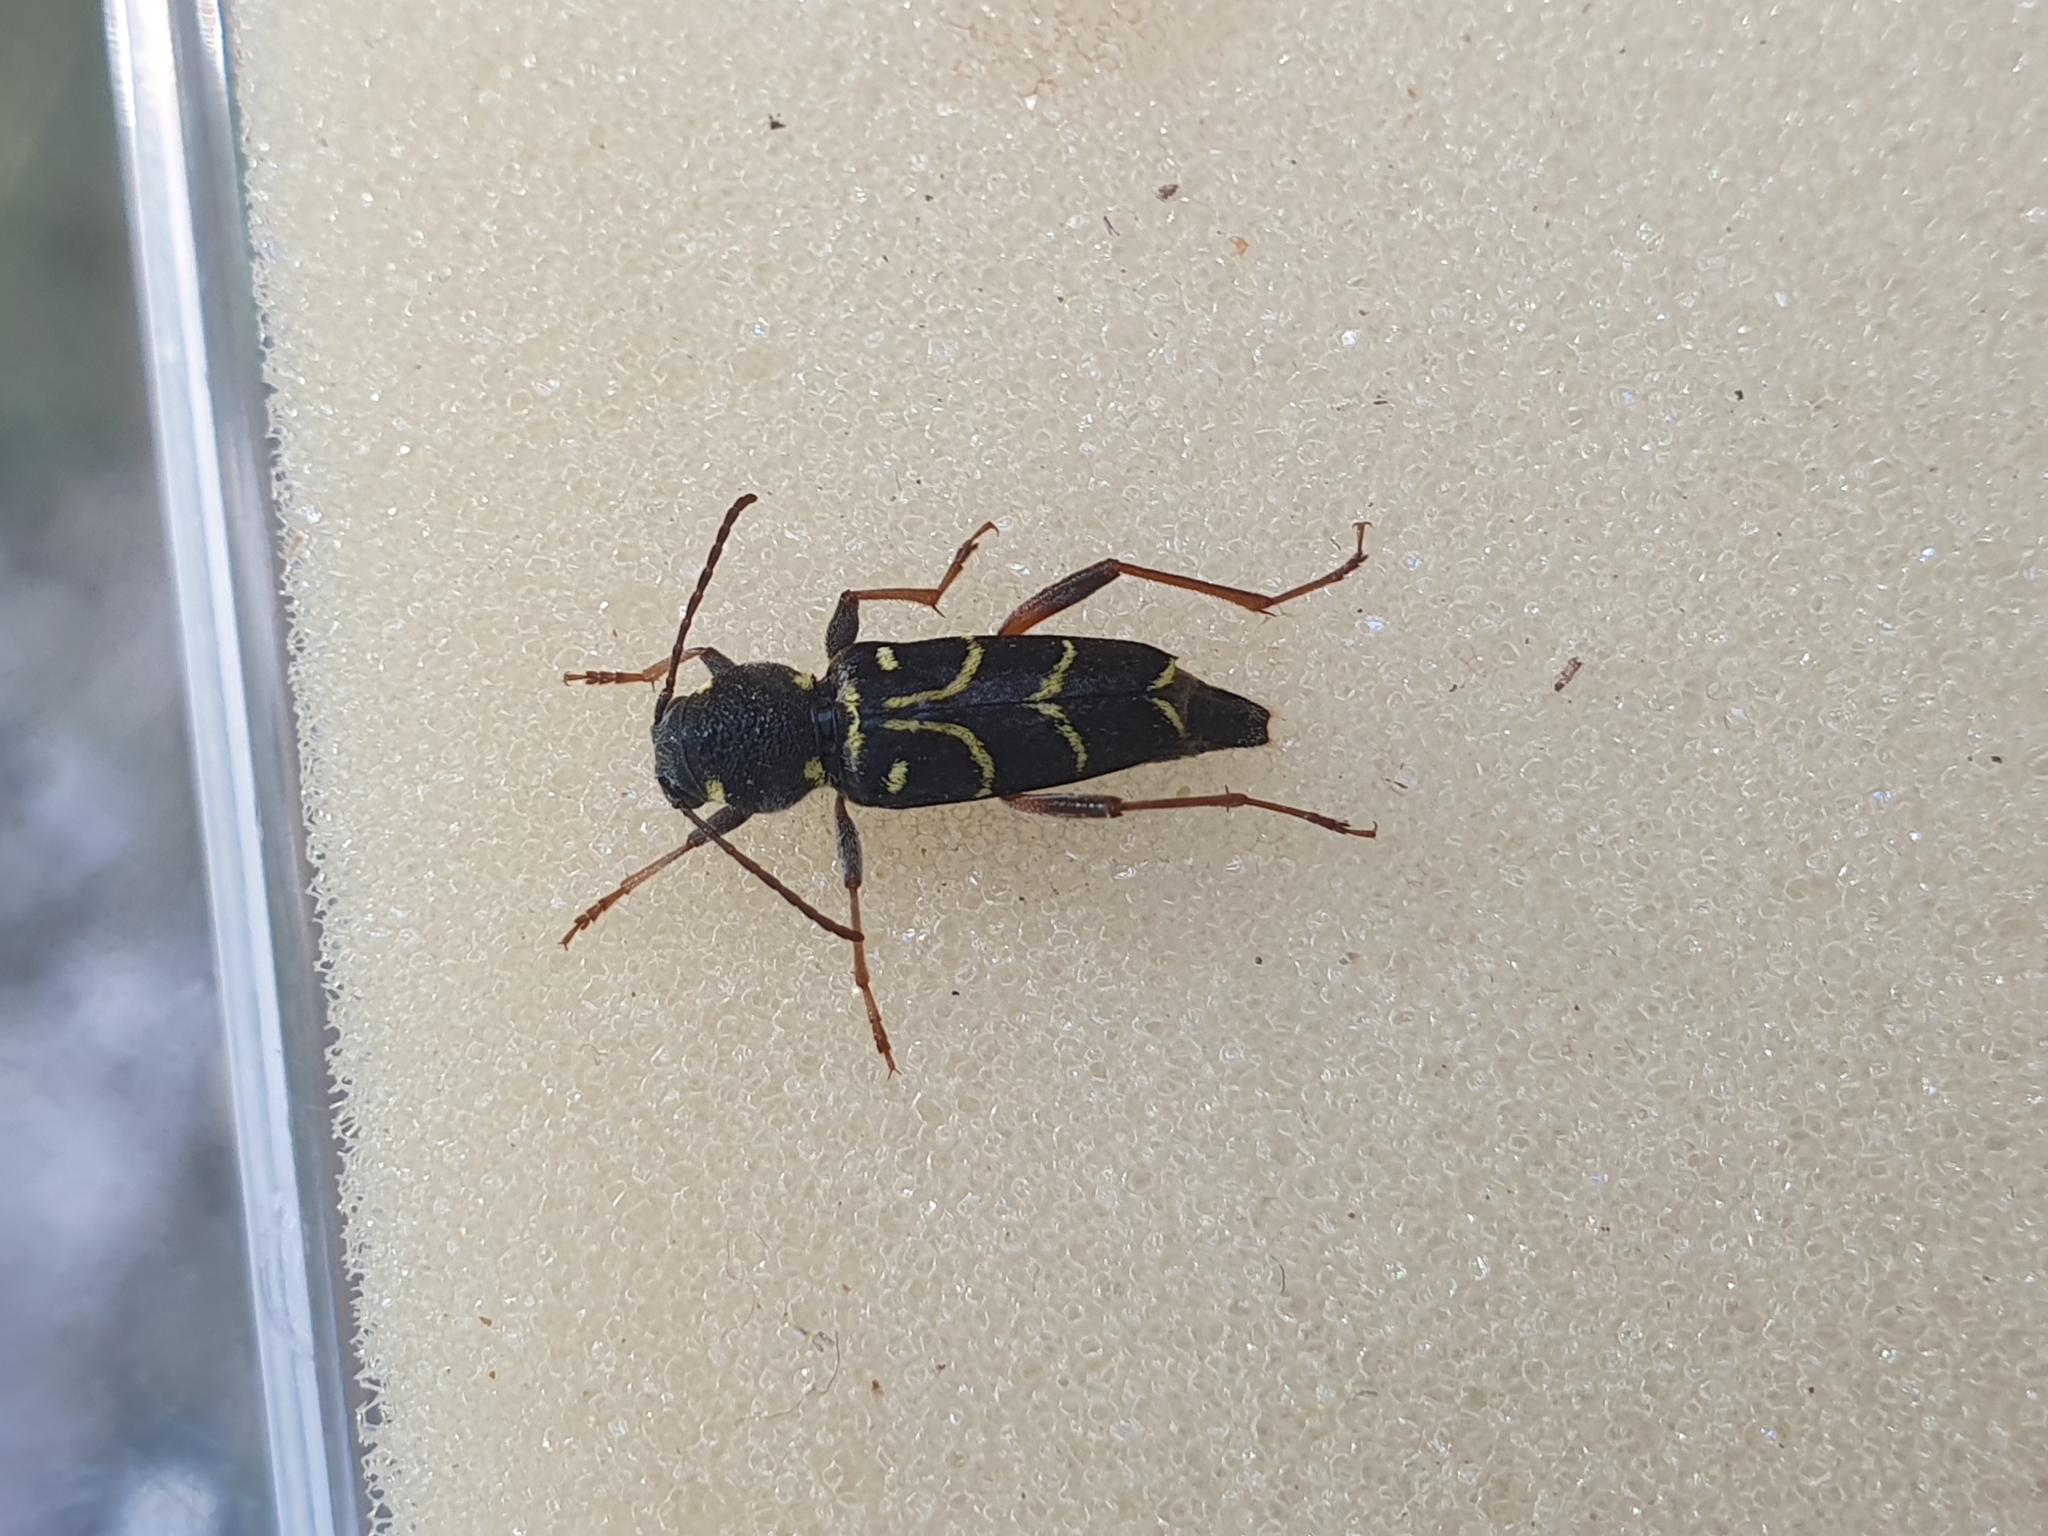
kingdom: Animalia
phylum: Arthropoda
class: Insecta
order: Coleoptera
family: Cerambycidae
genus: Xylotrechus
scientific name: Xylotrechus antilope
